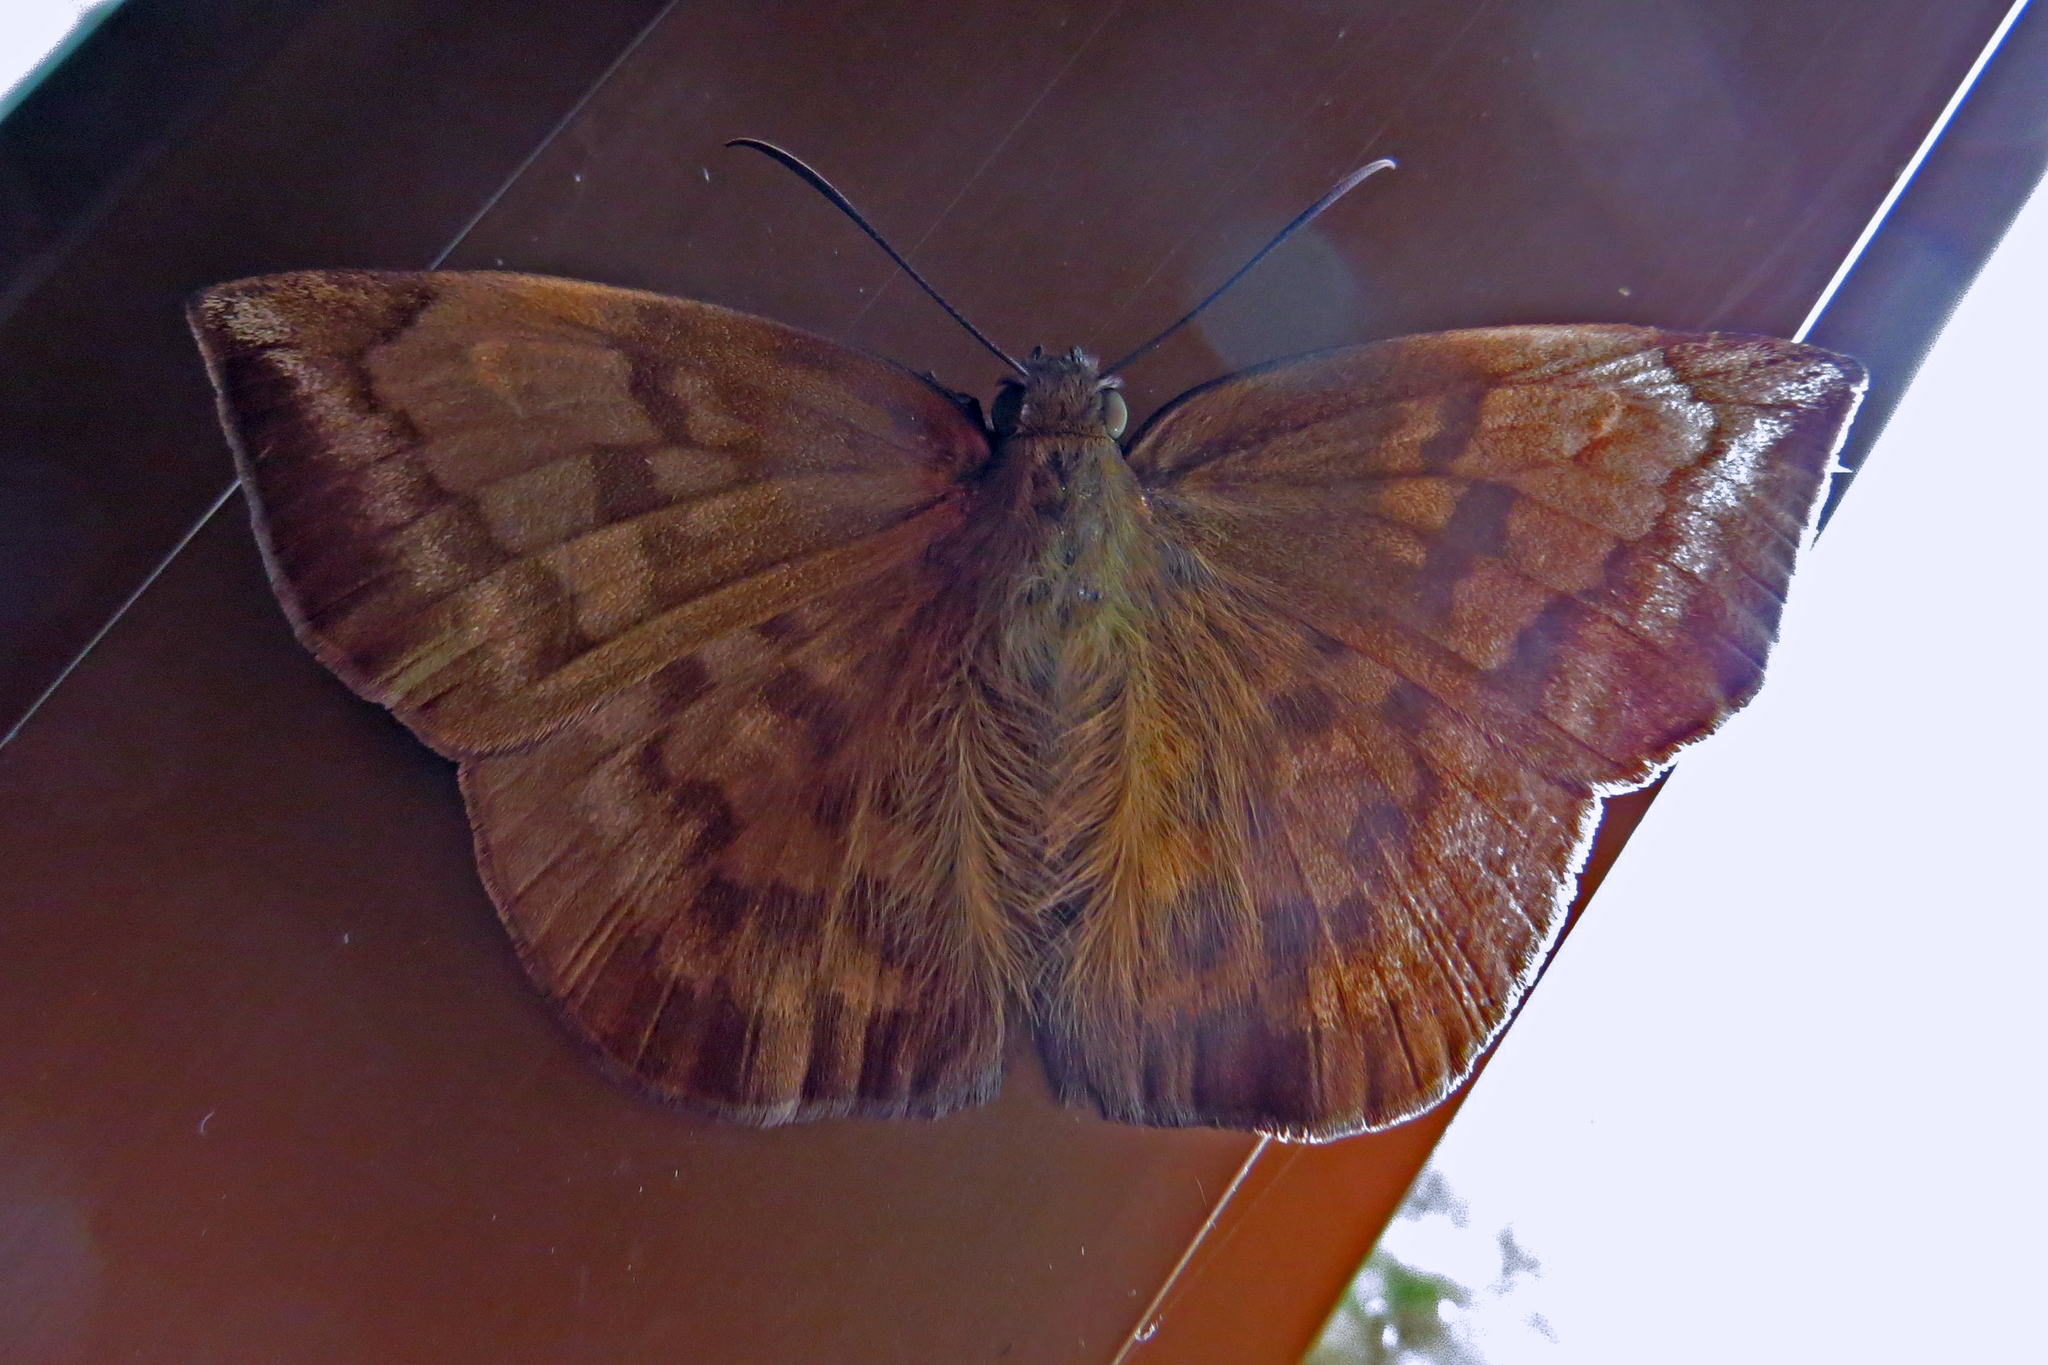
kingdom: Animalia
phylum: Arthropoda
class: Insecta
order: Lepidoptera
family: Hesperiidae
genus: Achlyodes
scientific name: Achlyodes pallida
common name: Pale sicklewing
